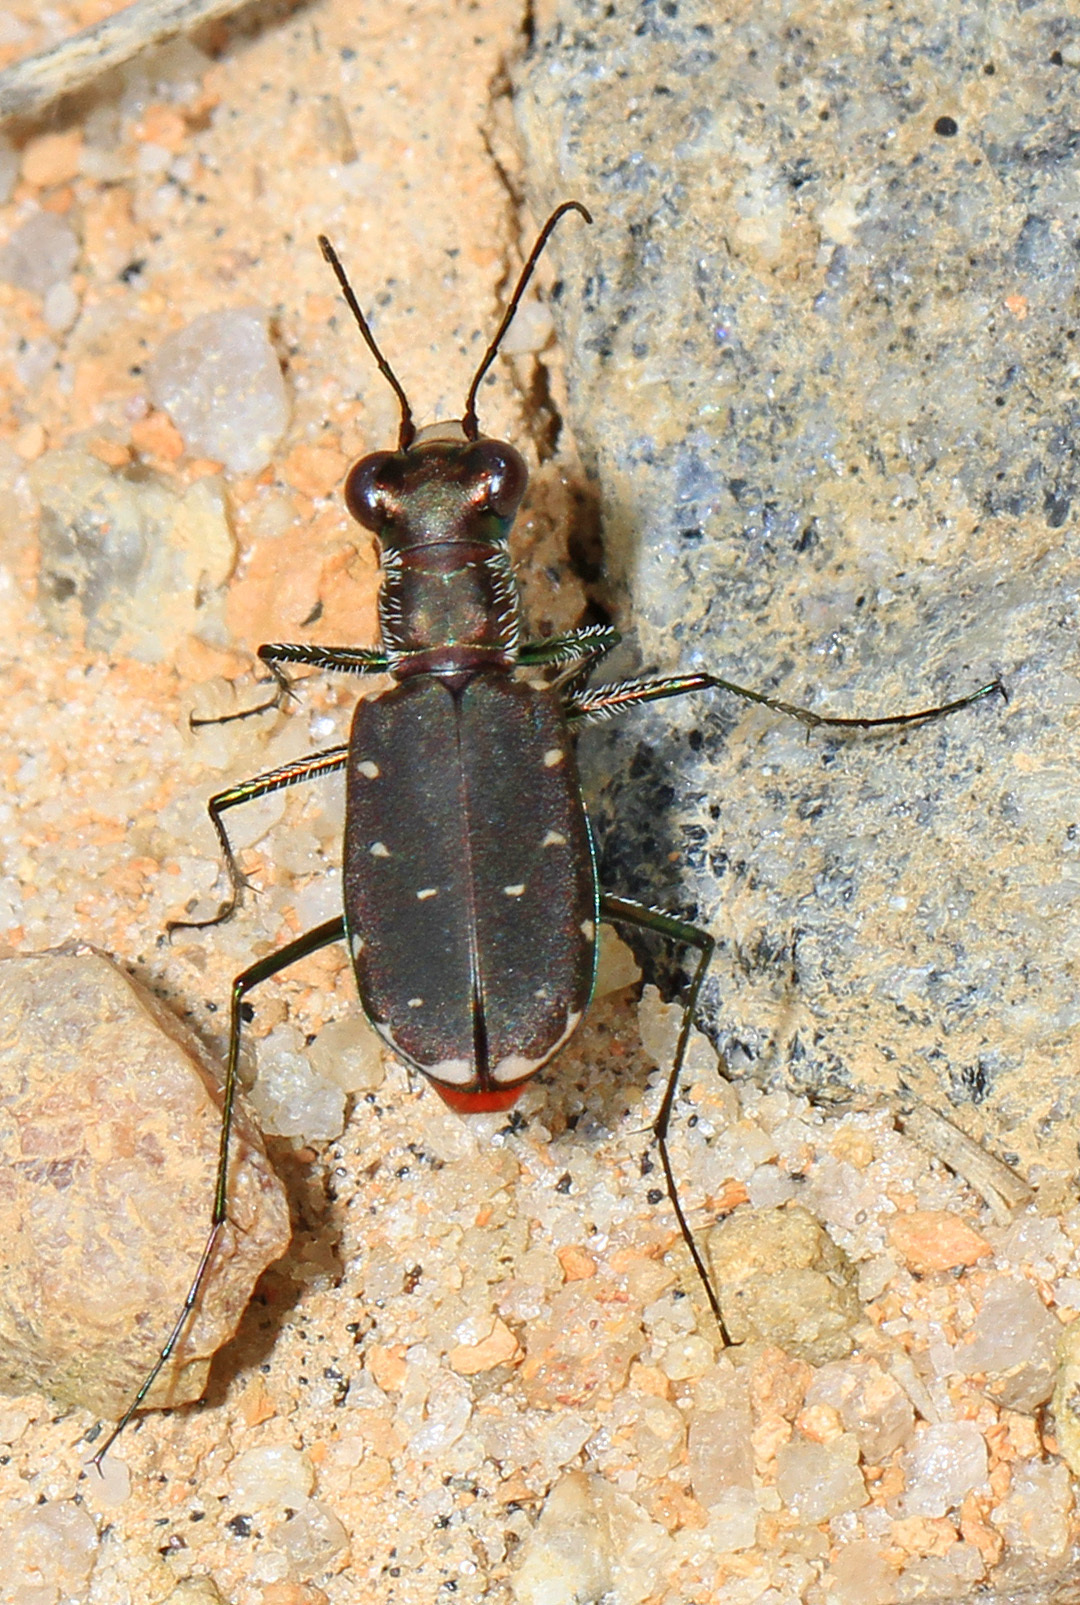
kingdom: Animalia
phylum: Arthropoda
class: Insecta
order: Coleoptera
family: Carabidae
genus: Cicindela
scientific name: Cicindela rufiventris
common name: Eastern red-bellied tiger beetle
